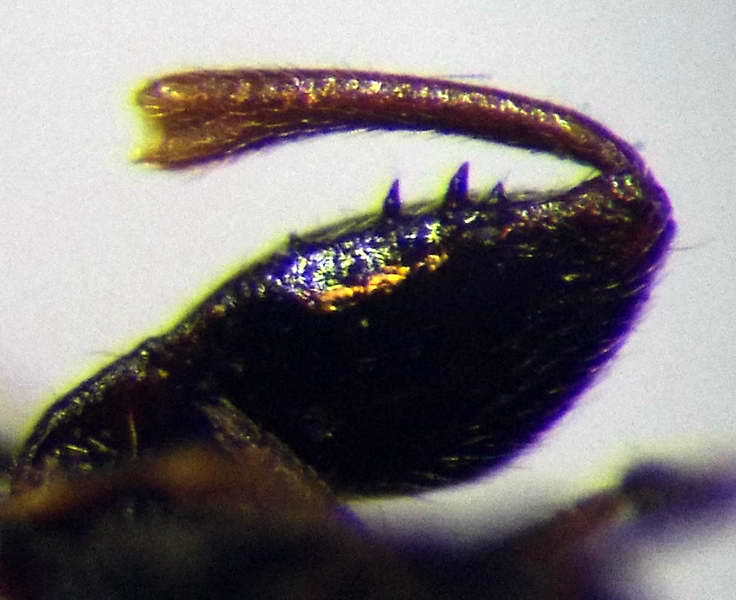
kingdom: Animalia
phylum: Arthropoda
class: Insecta
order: Hemiptera
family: Rhyparochromidae
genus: Plinthisus
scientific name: Plinthisus longicollis
